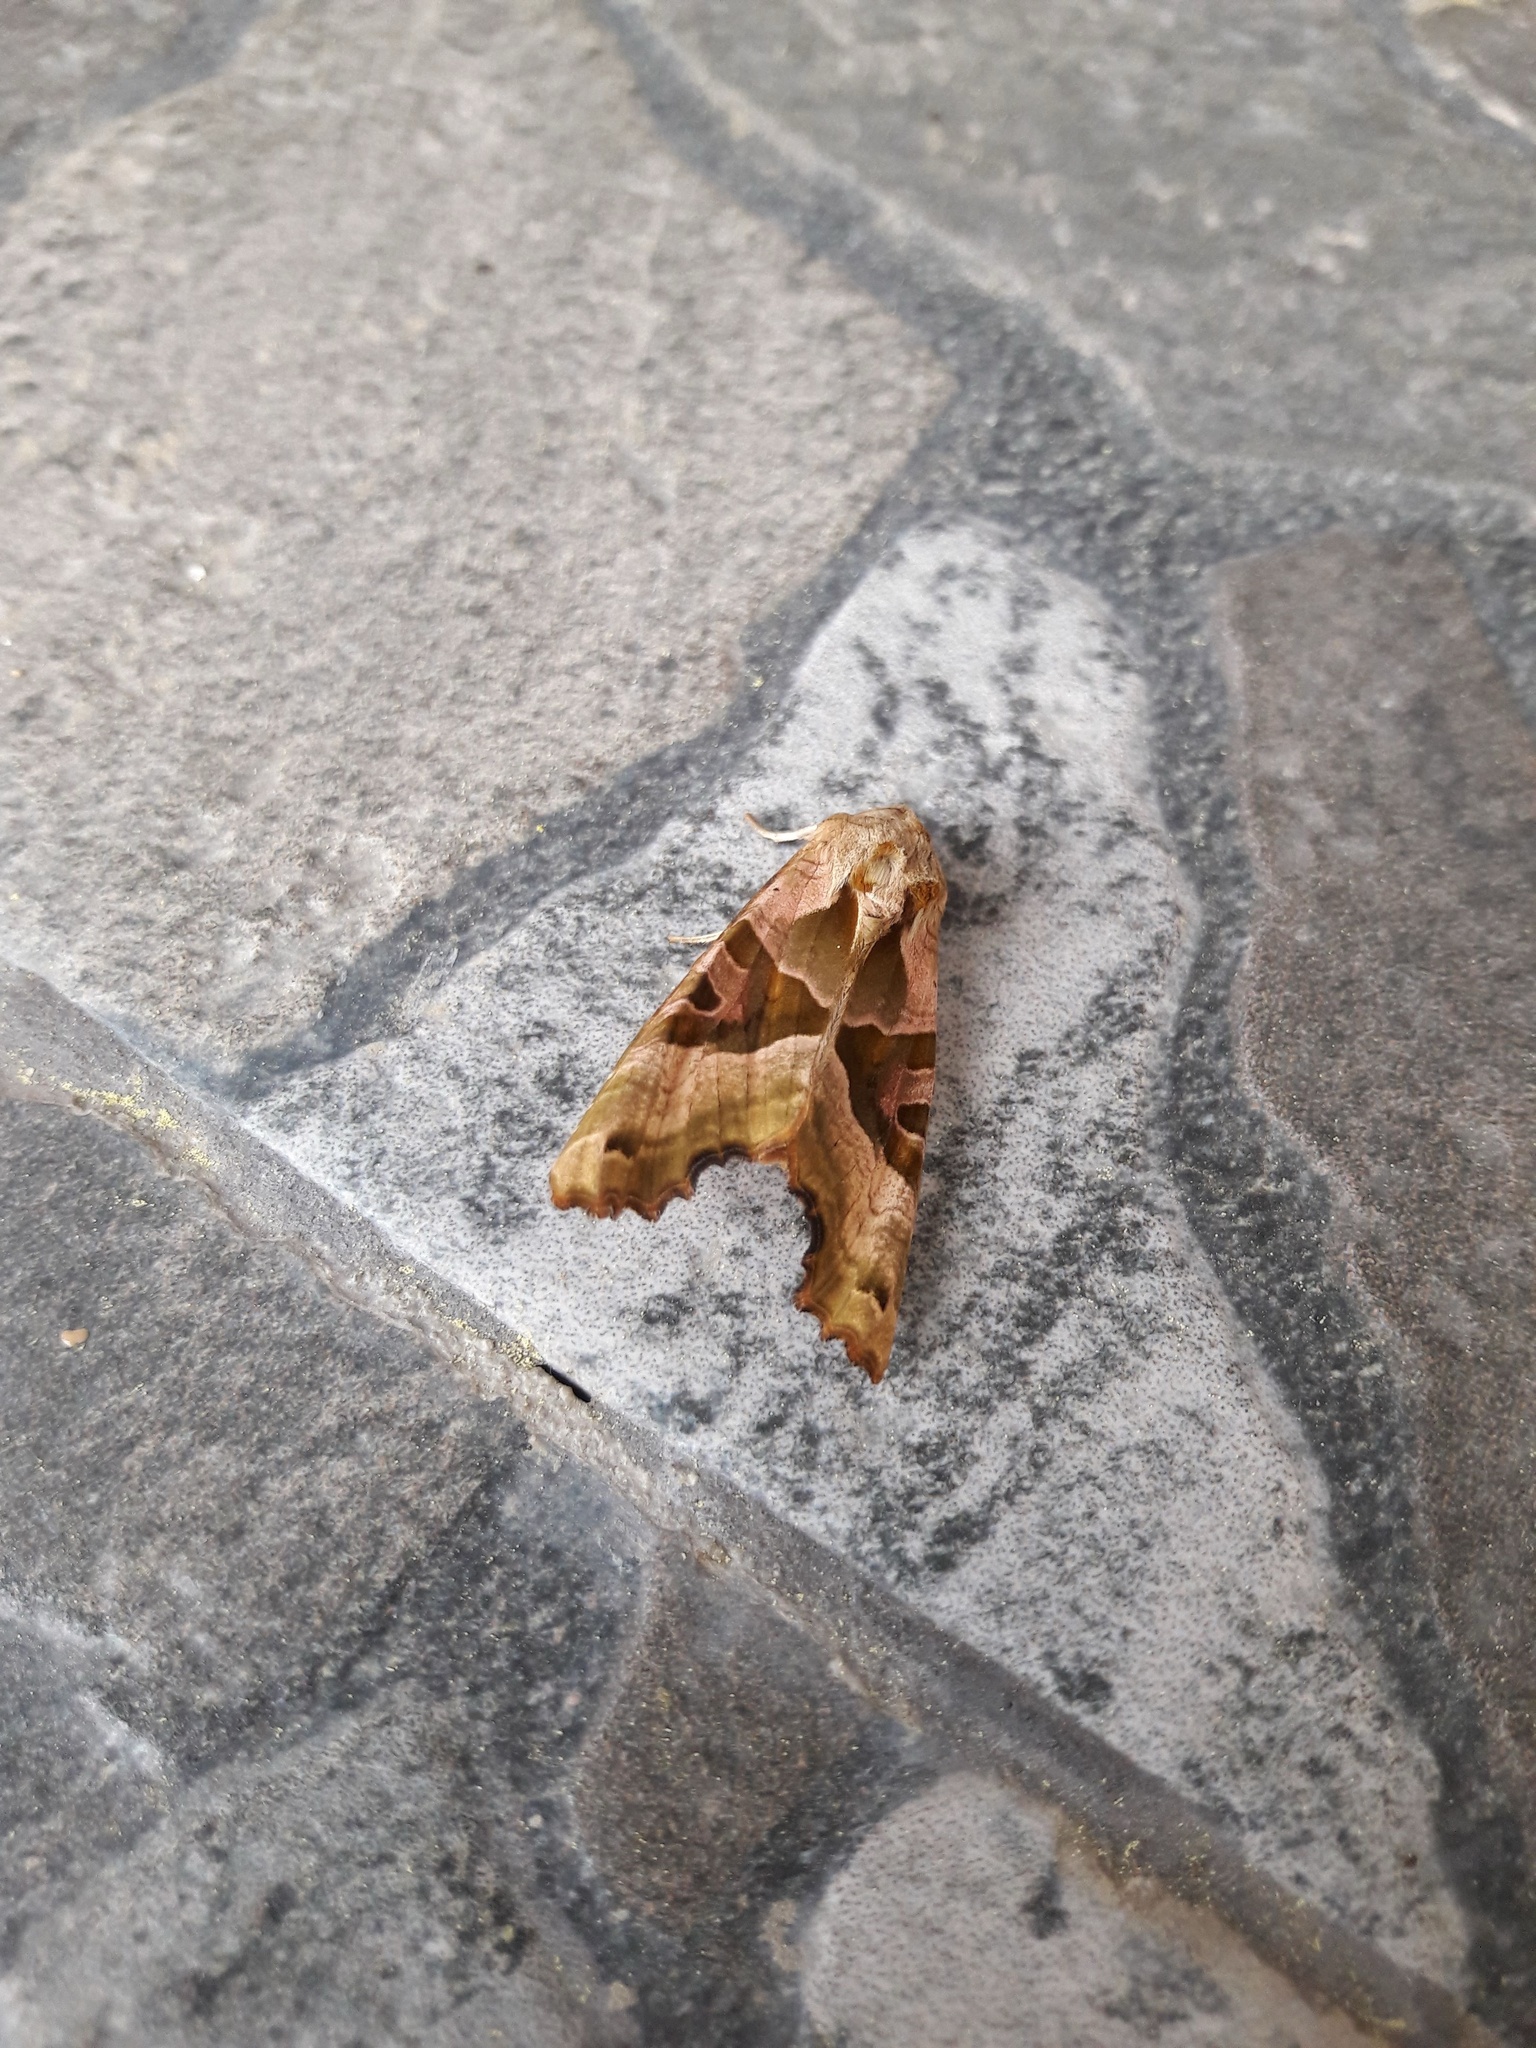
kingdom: Animalia
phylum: Arthropoda
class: Insecta
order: Lepidoptera
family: Noctuidae
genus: Phlogophora
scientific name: Phlogophora meticulosa
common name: Angle shades
